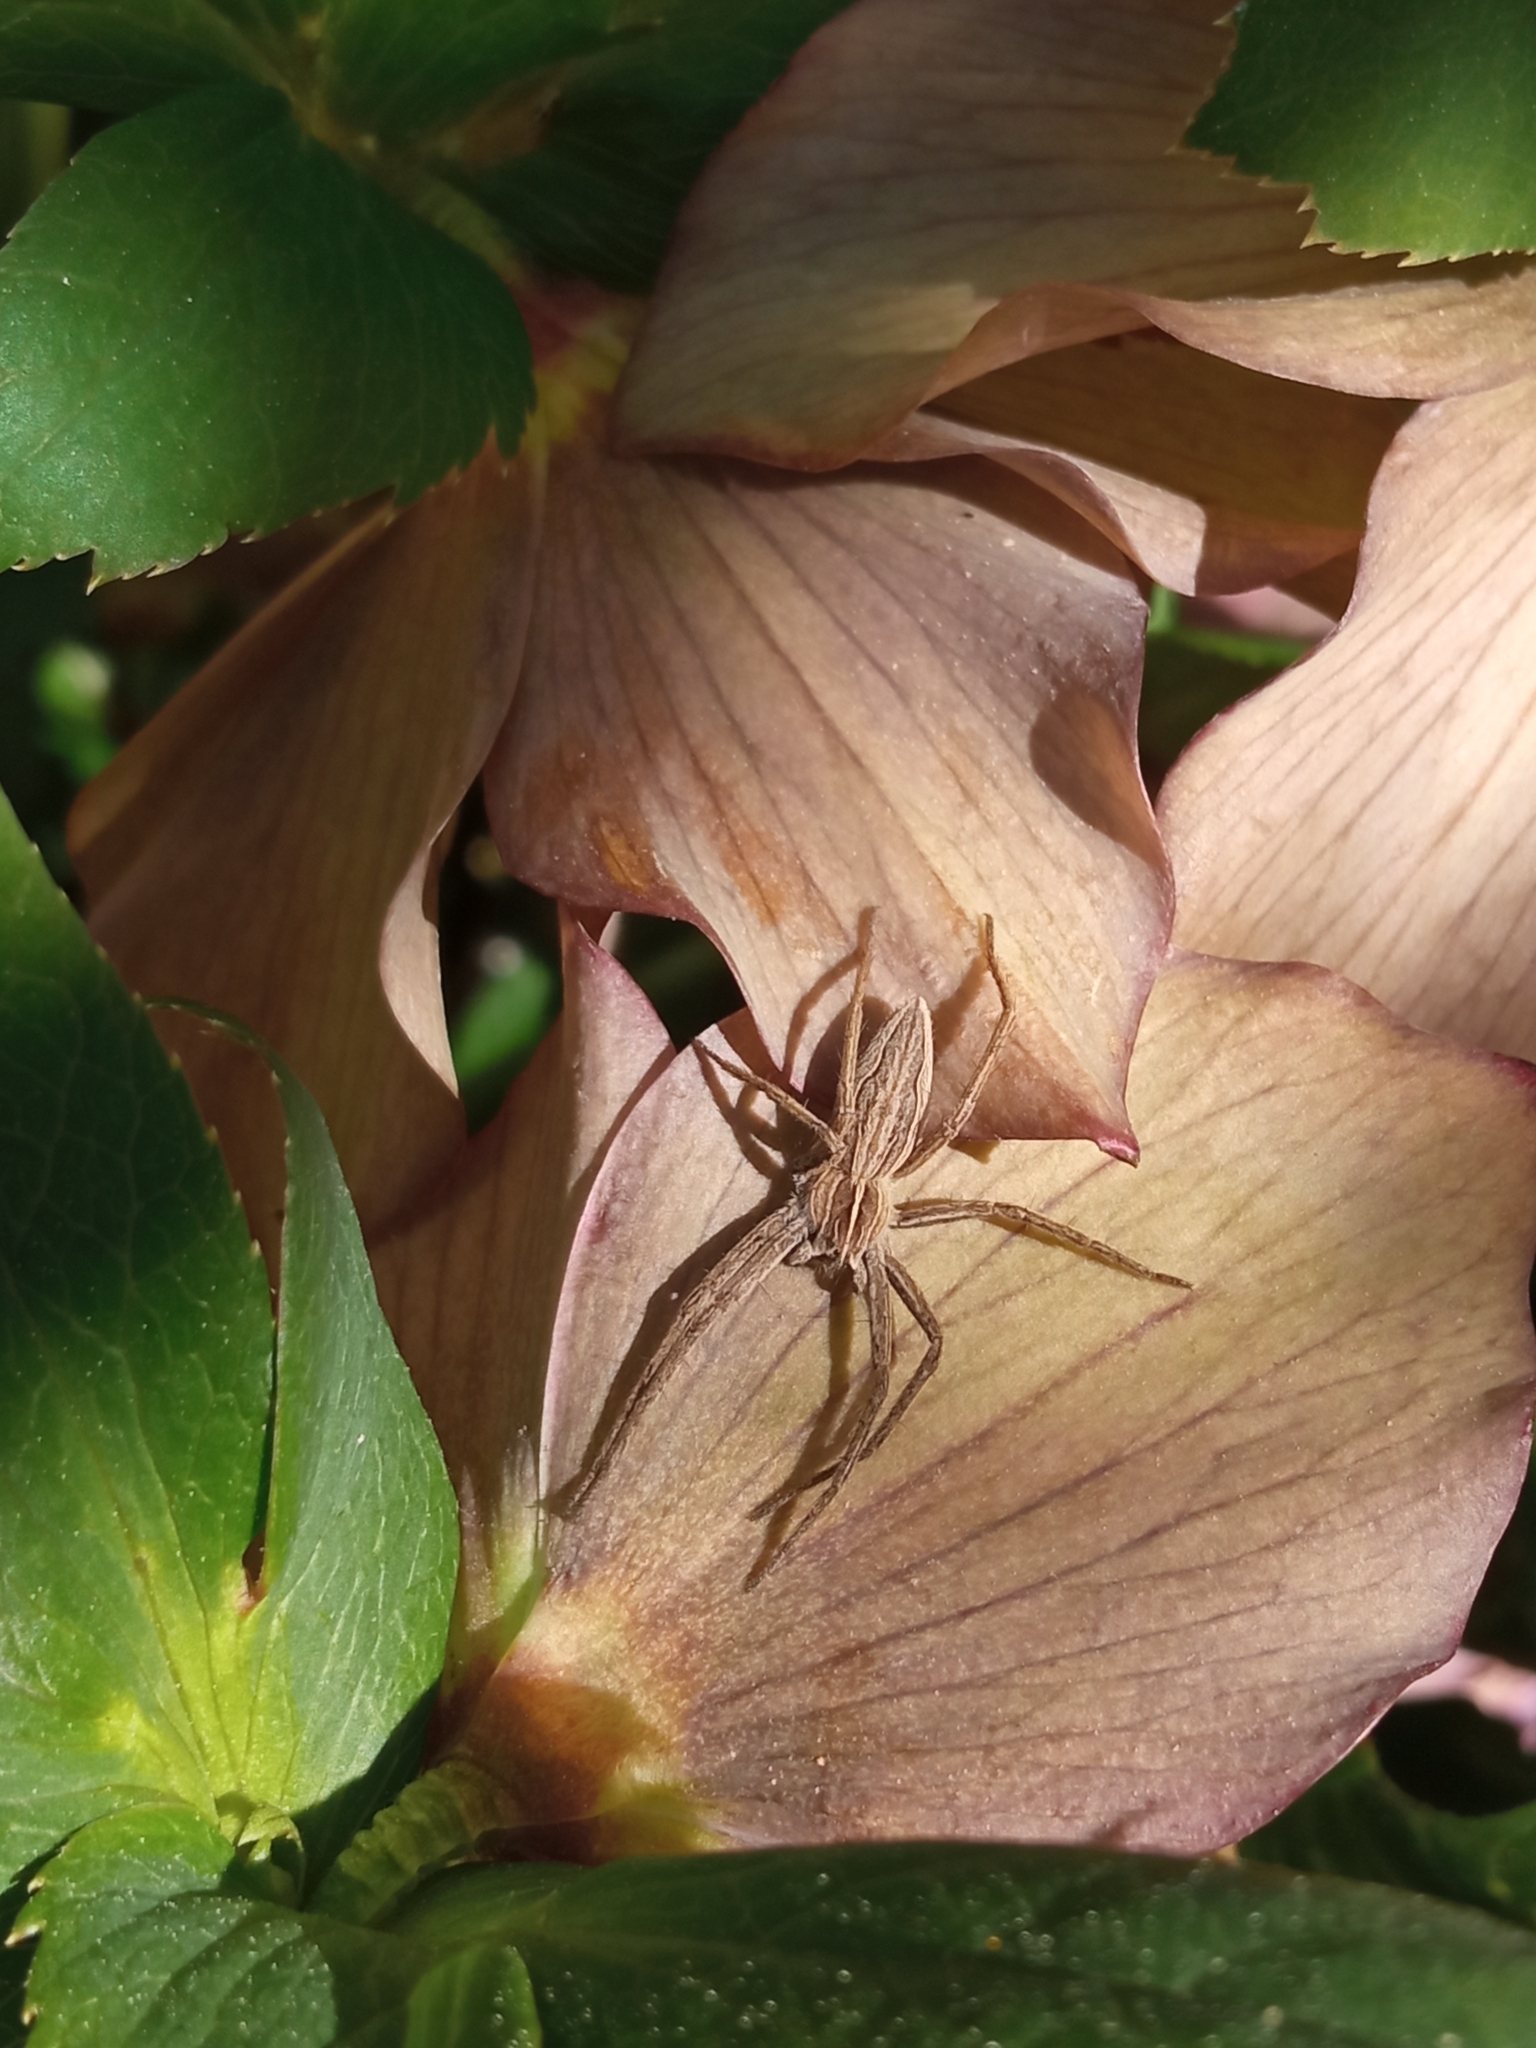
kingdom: Animalia
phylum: Arthropoda
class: Arachnida
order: Araneae
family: Pisauridae
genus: Pisaura
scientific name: Pisaura mirabilis
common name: Tent spider
